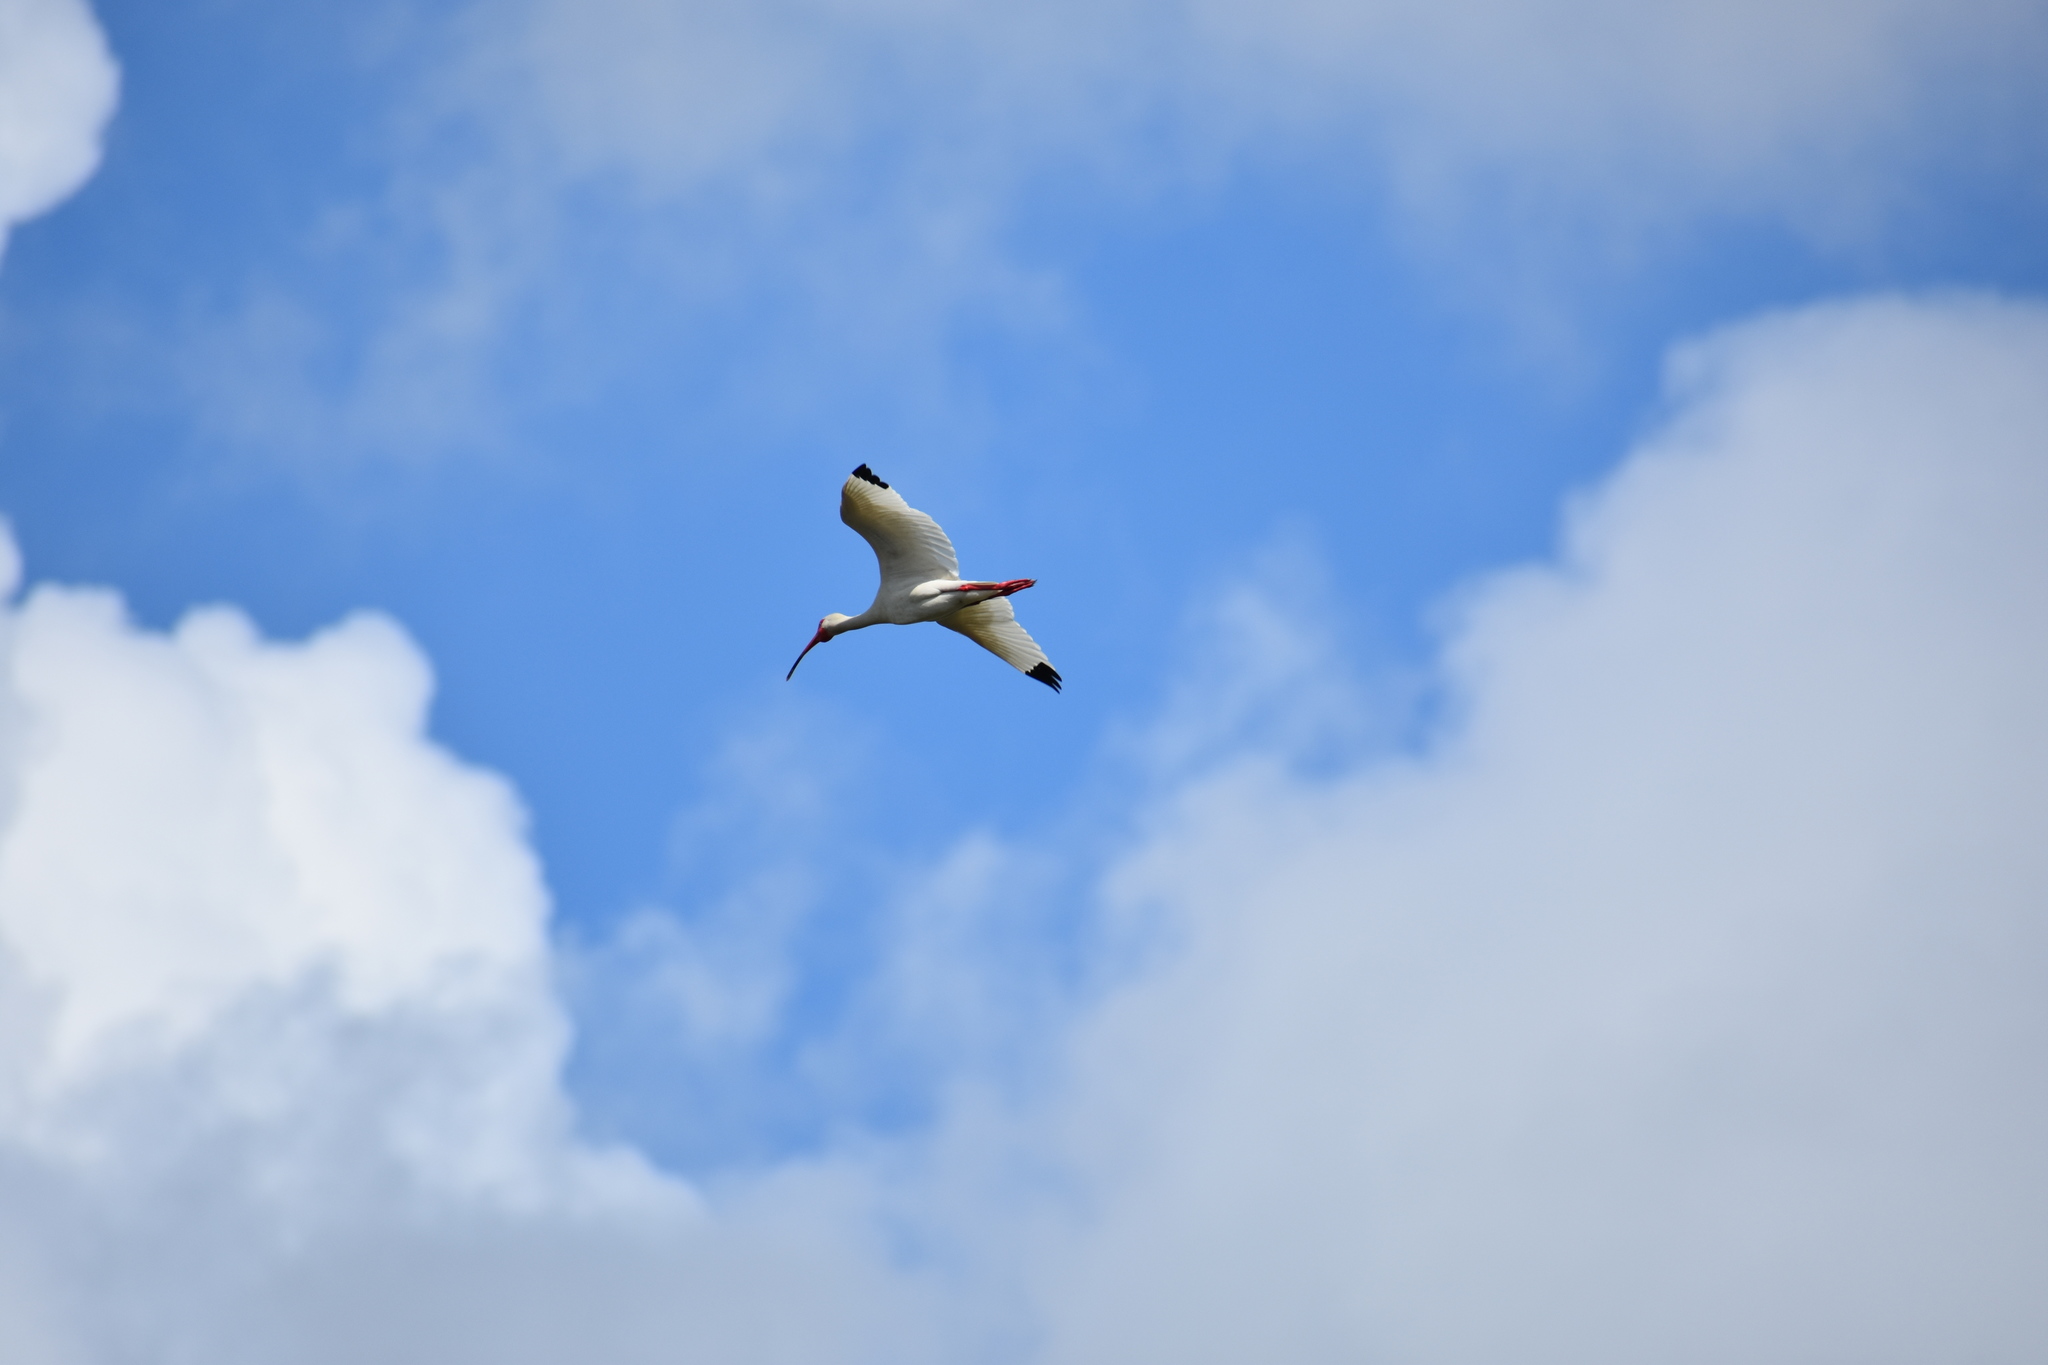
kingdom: Animalia
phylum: Chordata
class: Aves
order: Pelecaniformes
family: Threskiornithidae
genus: Eudocimus
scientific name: Eudocimus albus
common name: White ibis
